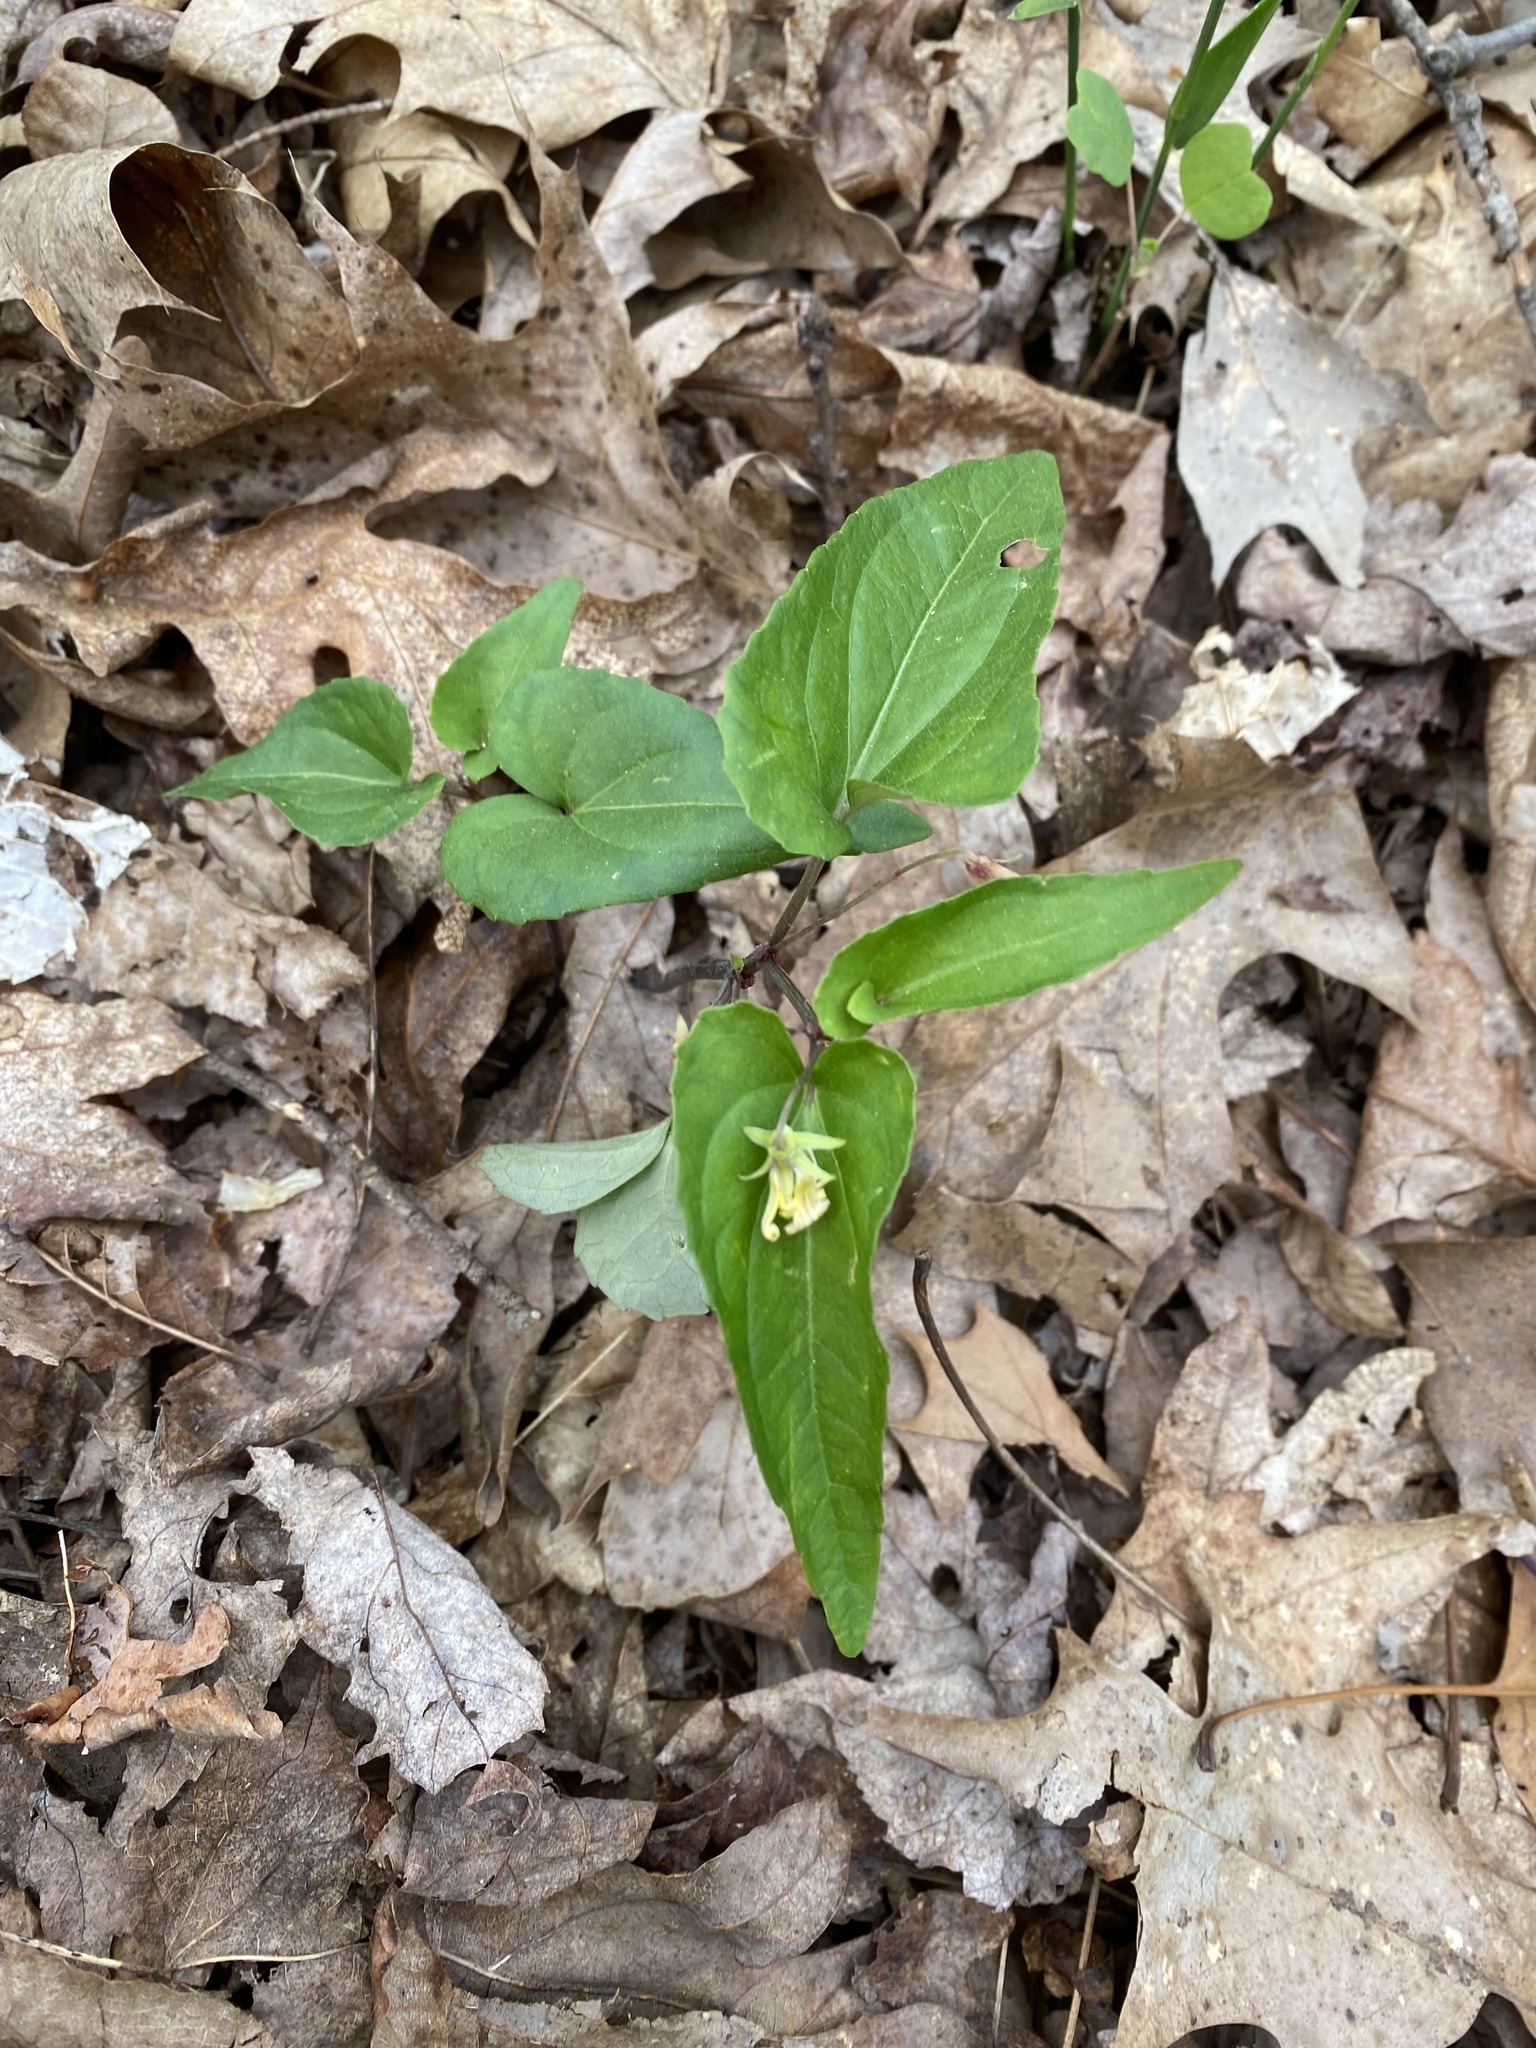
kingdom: Plantae
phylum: Tracheophyta
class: Magnoliopsida
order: Malpighiales
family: Violaceae
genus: Viola
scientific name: Viola hastata
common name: Spear-leaf violet
